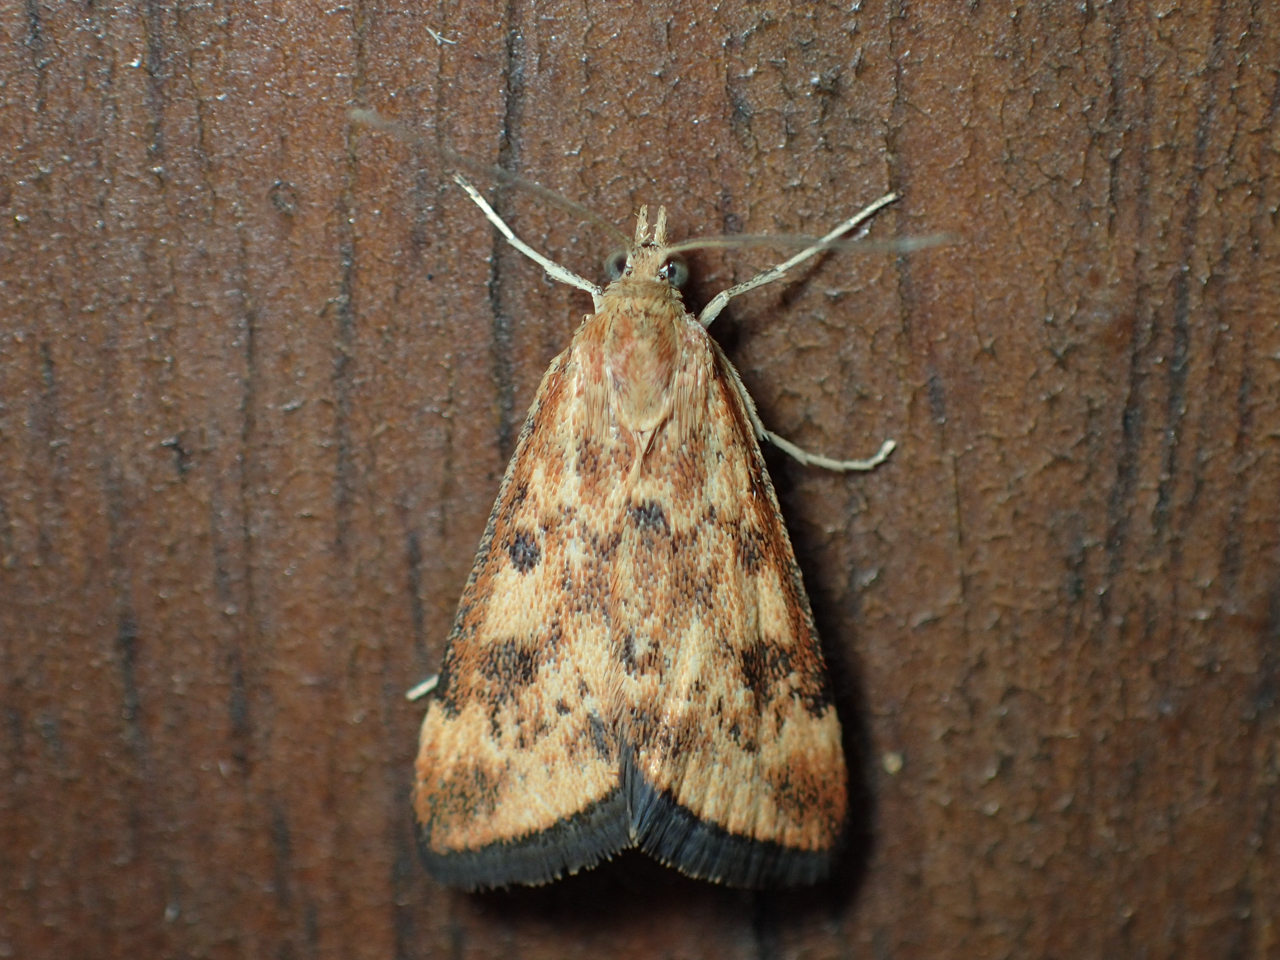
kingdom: Animalia
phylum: Arthropoda
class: Insecta
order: Lepidoptera
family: Crambidae
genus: Pyrausta
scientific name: Pyrausta subsequalis
